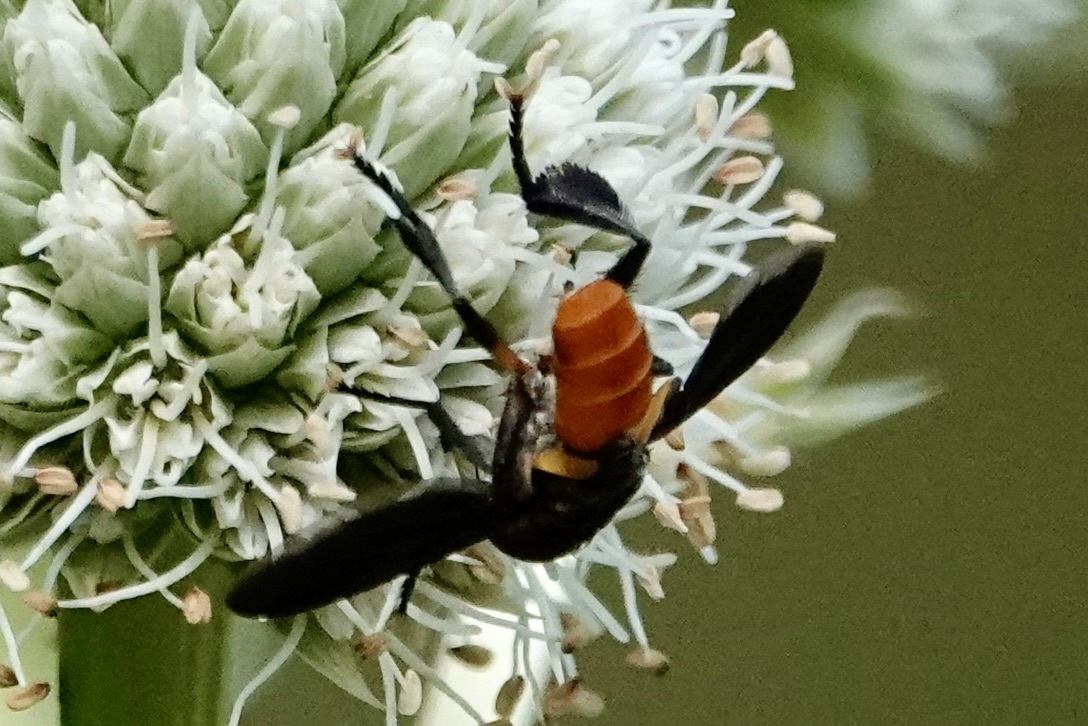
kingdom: Animalia
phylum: Arthropoda
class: Insecta
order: Diptera
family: Tachinidae
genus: Trichopoda
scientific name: Trichopoda pennipes
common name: Tachinid fly
